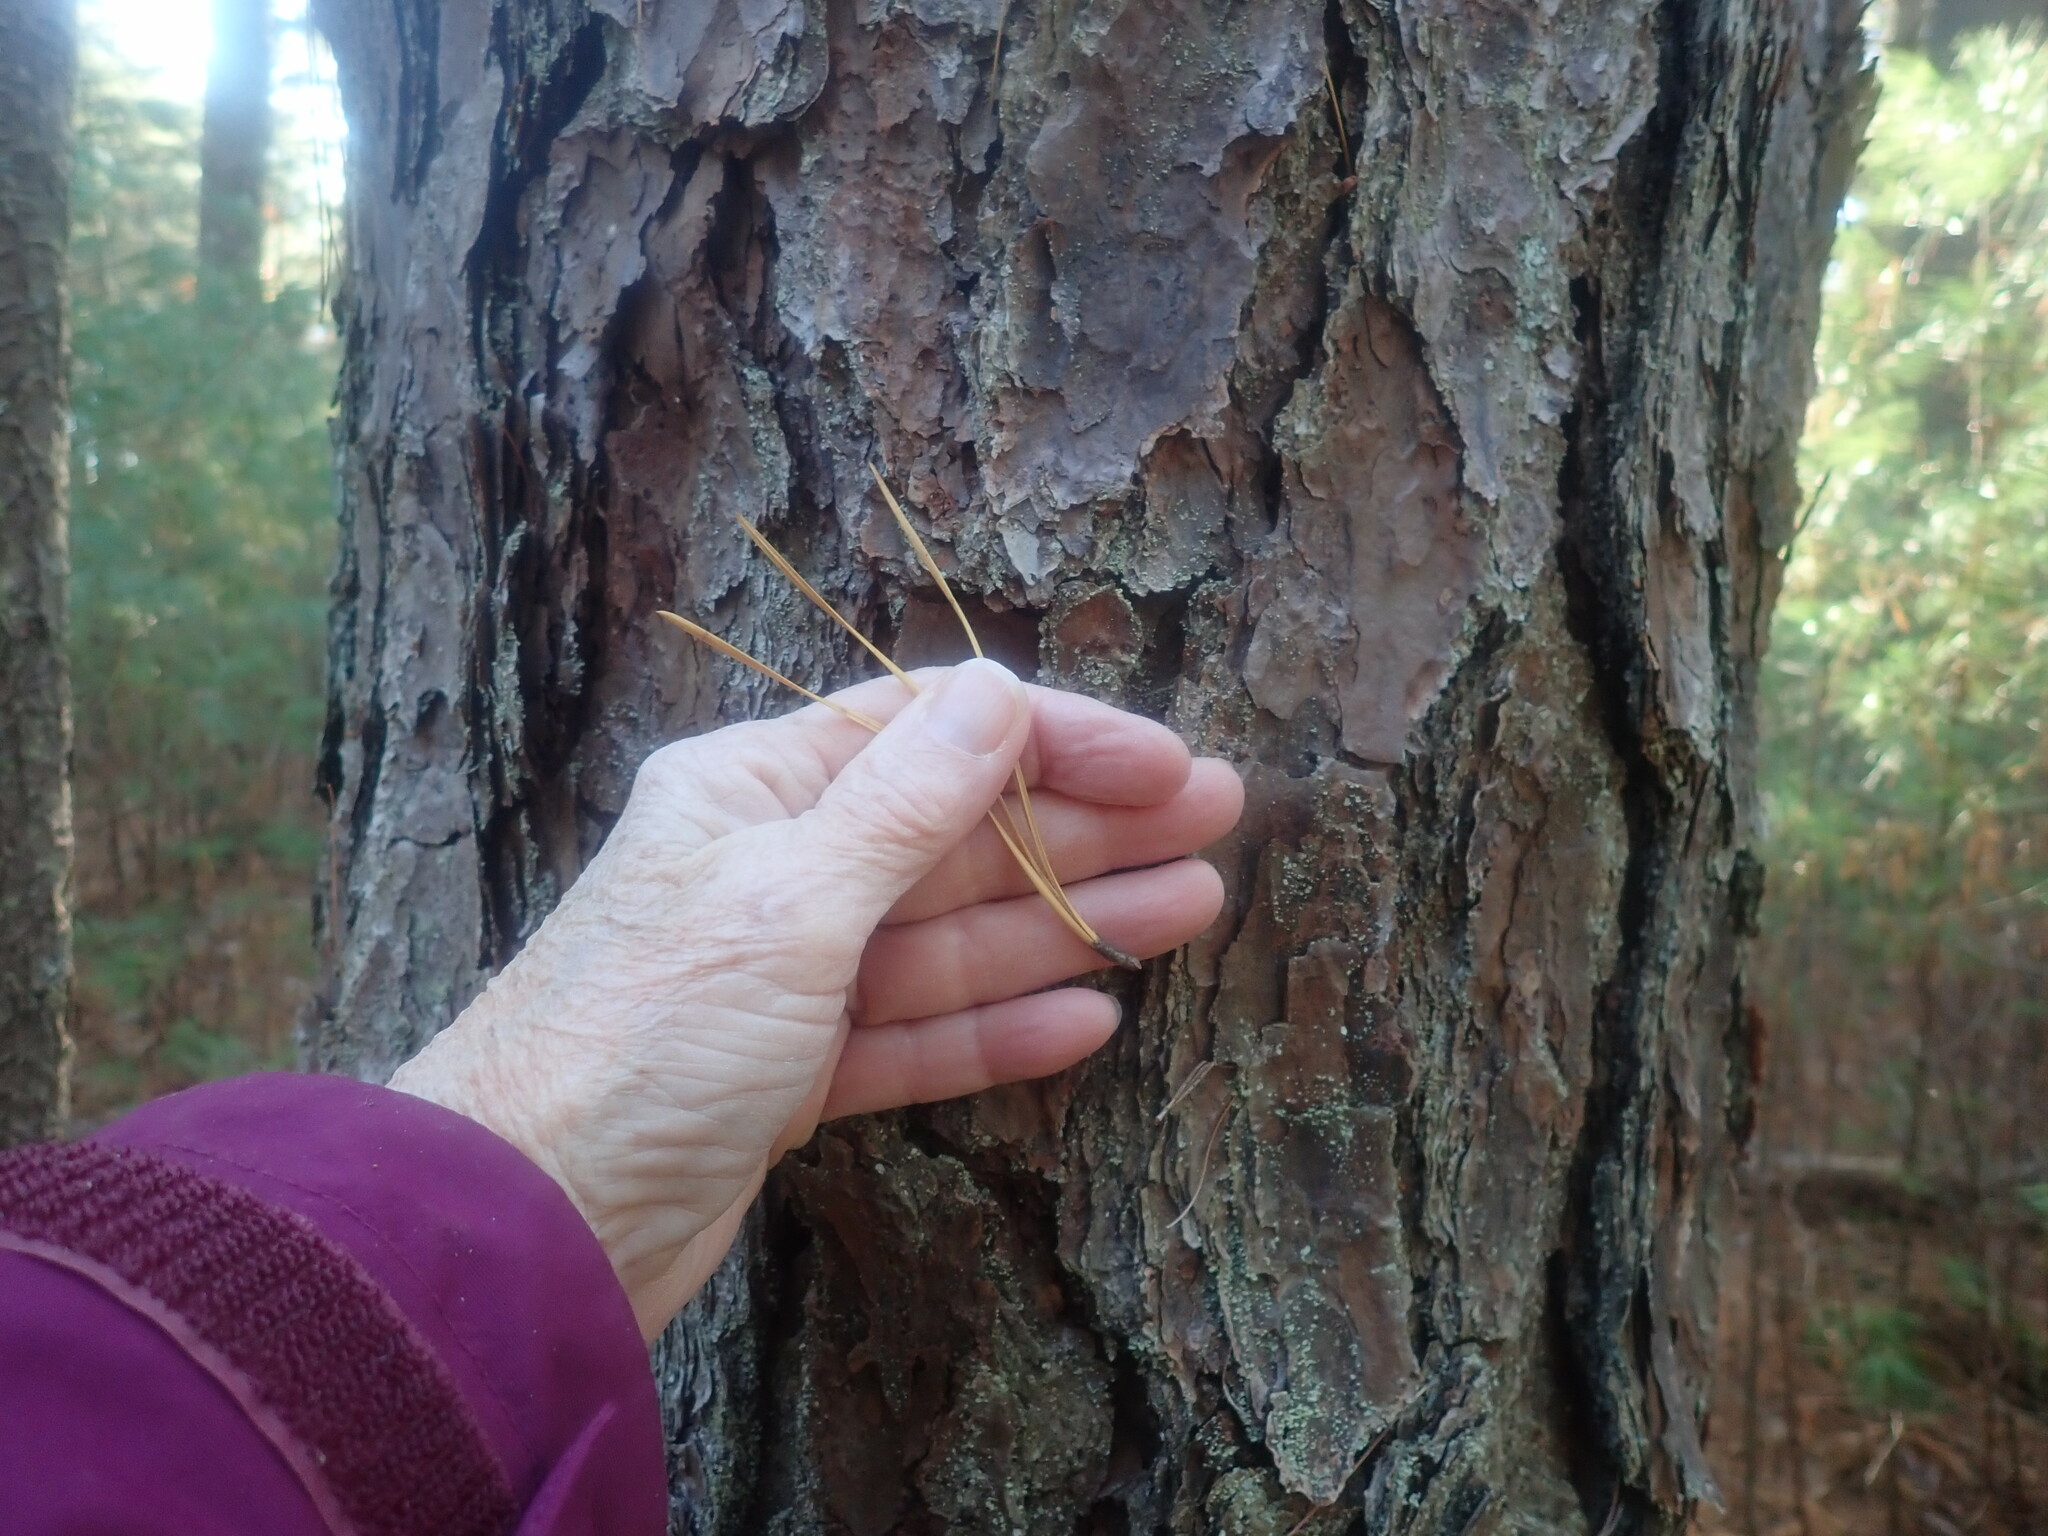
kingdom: Plantae
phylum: Tracheophyta
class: Pinopsida
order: Pinales
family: Pinaceae
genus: Pinus
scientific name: Pinus rigida
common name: Pitch pine
